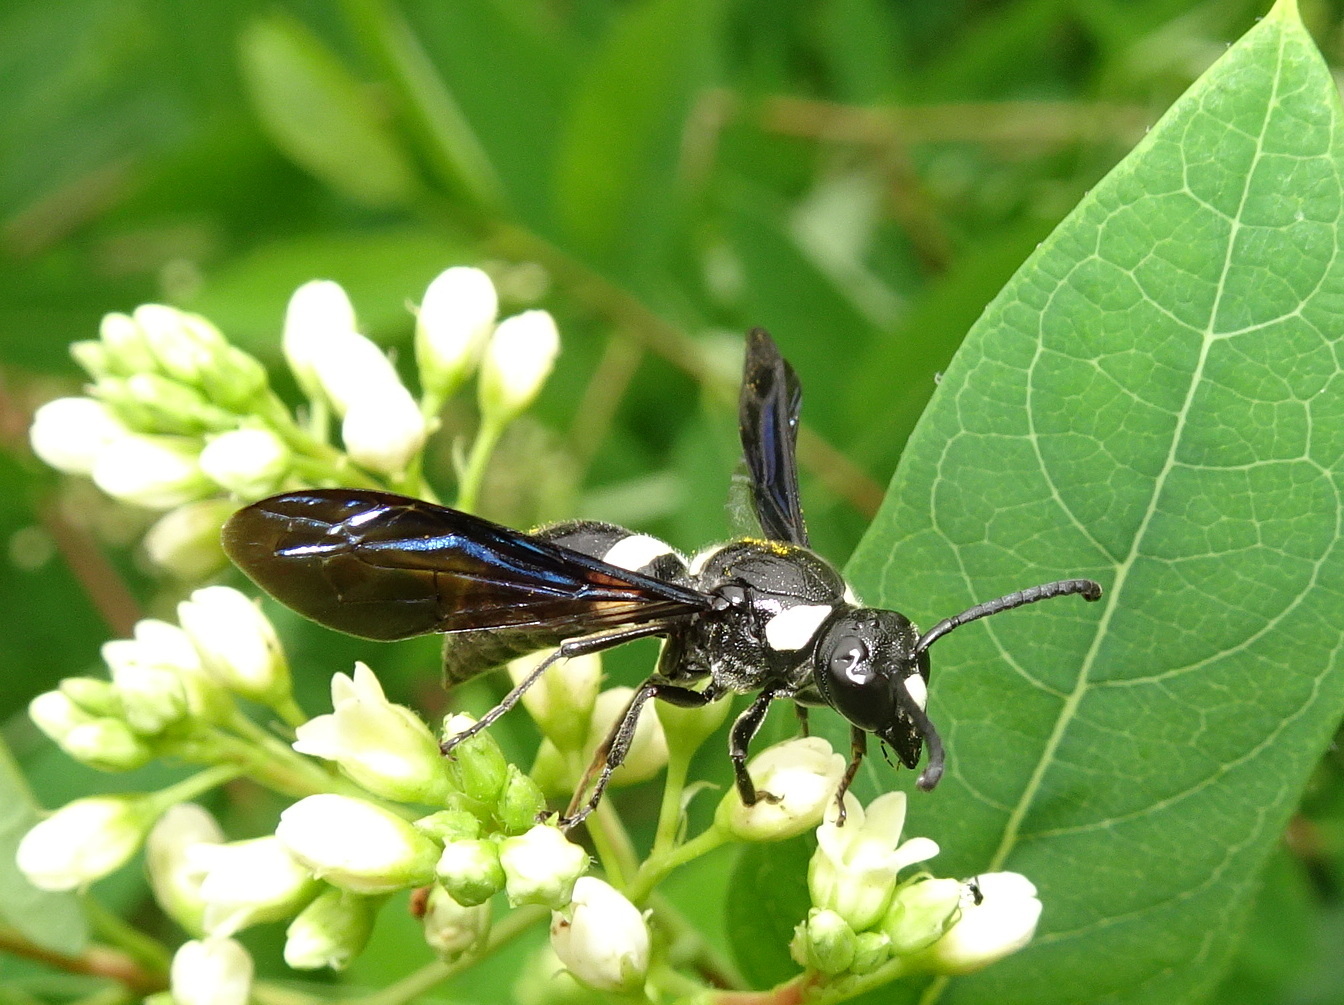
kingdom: Animalia
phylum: Arthropoda
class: Insecta
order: Hymenoptera
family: Eumenidae
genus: Monobia
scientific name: Monobia quadridens
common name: Four-toothed mason wasp
